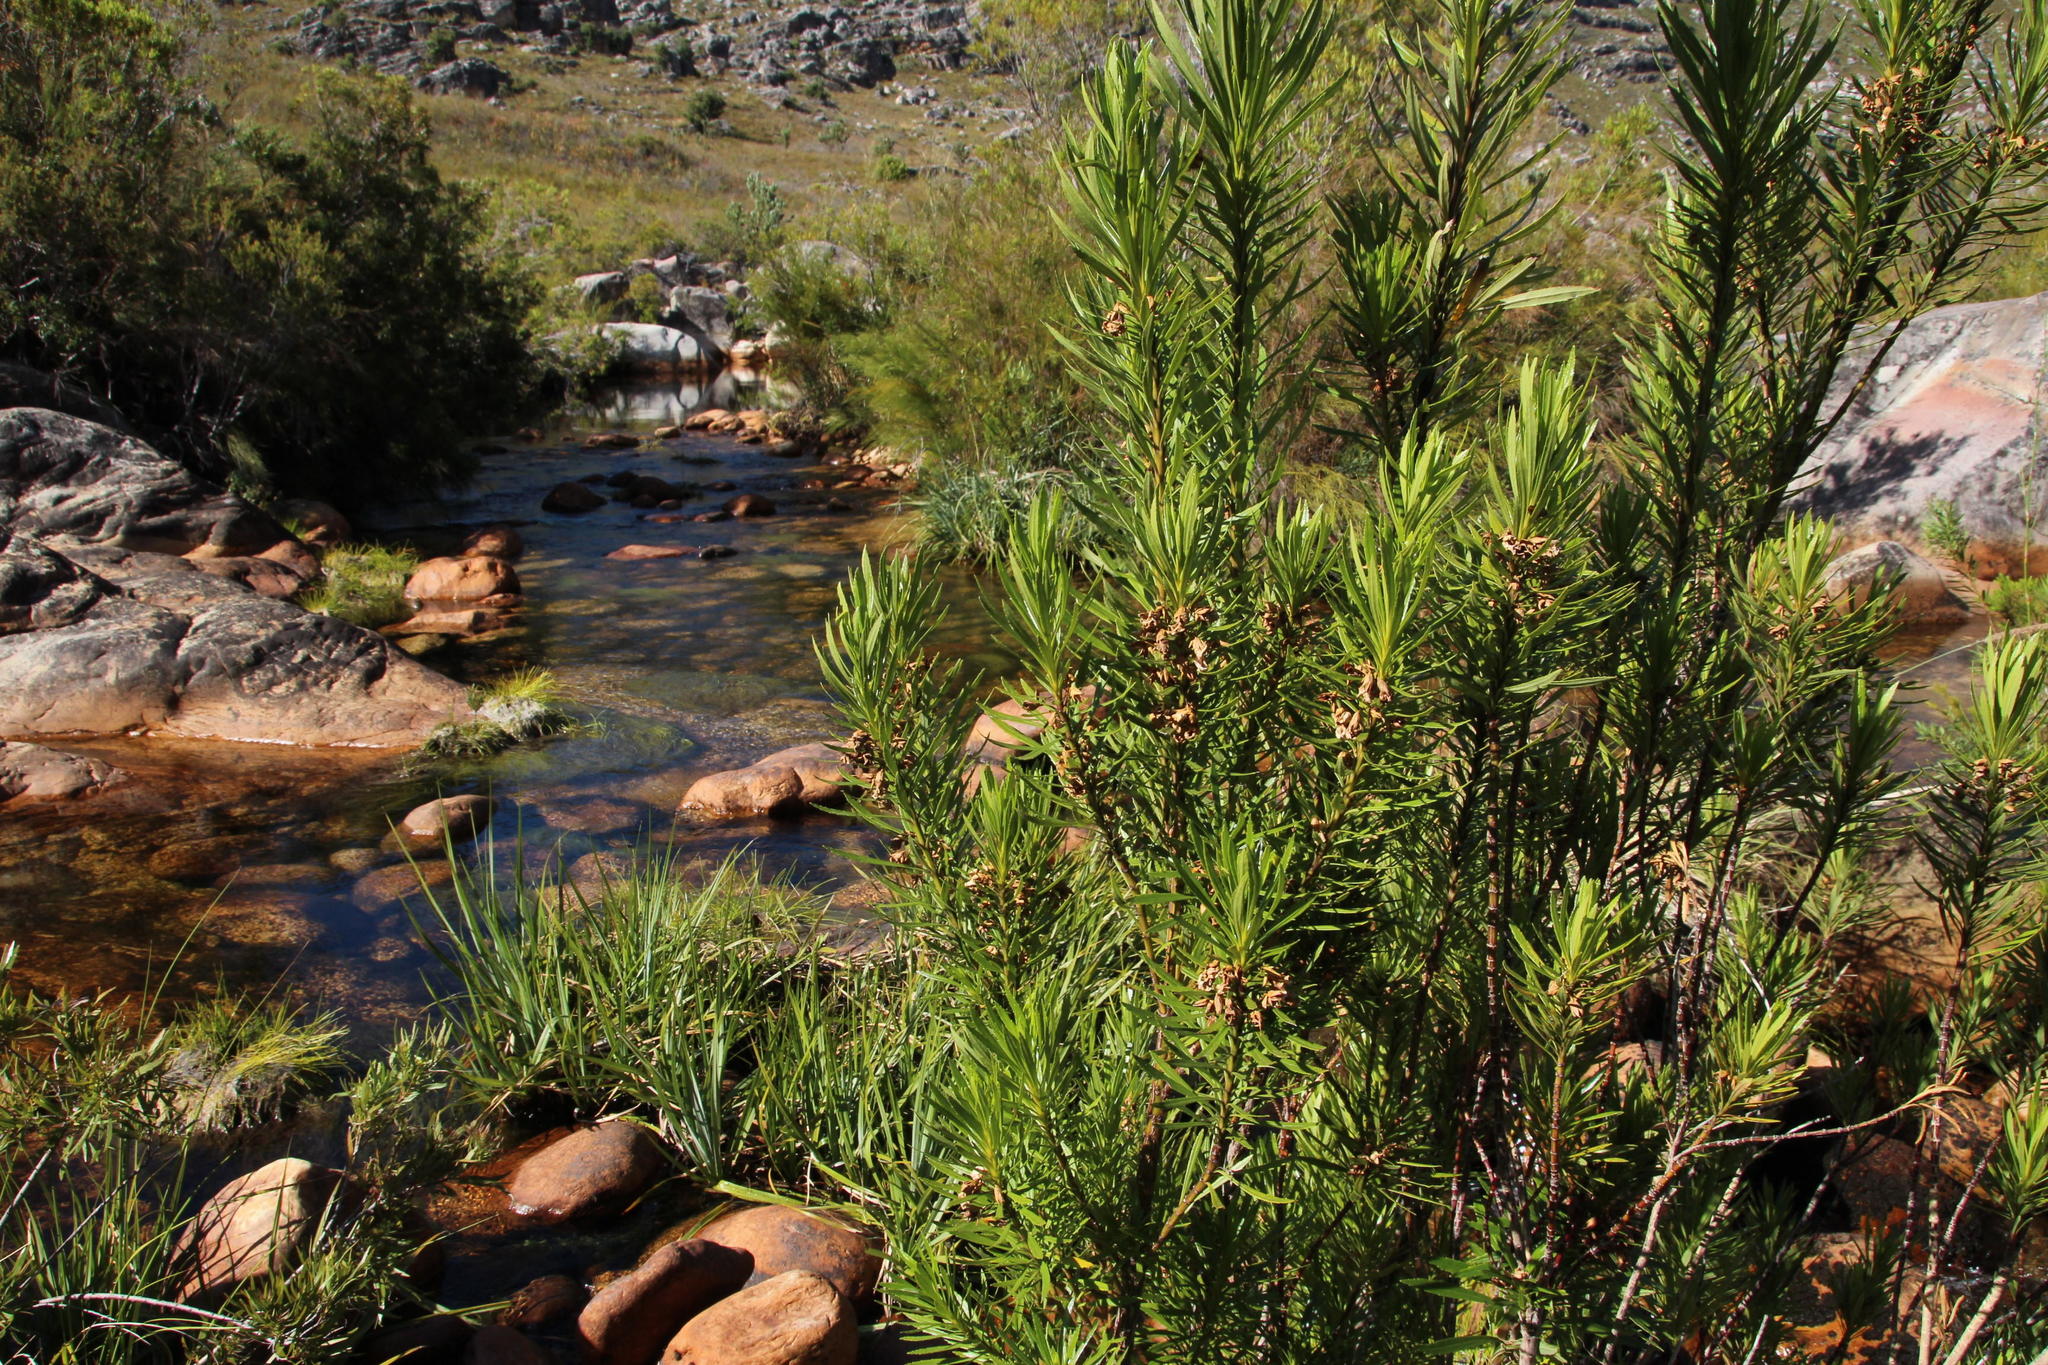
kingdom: Plantae
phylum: Tracheophyta
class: Magnoliopsida
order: Lamiales
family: Stilbaceae
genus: Ixianthes
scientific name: Ixianthes retzioides
